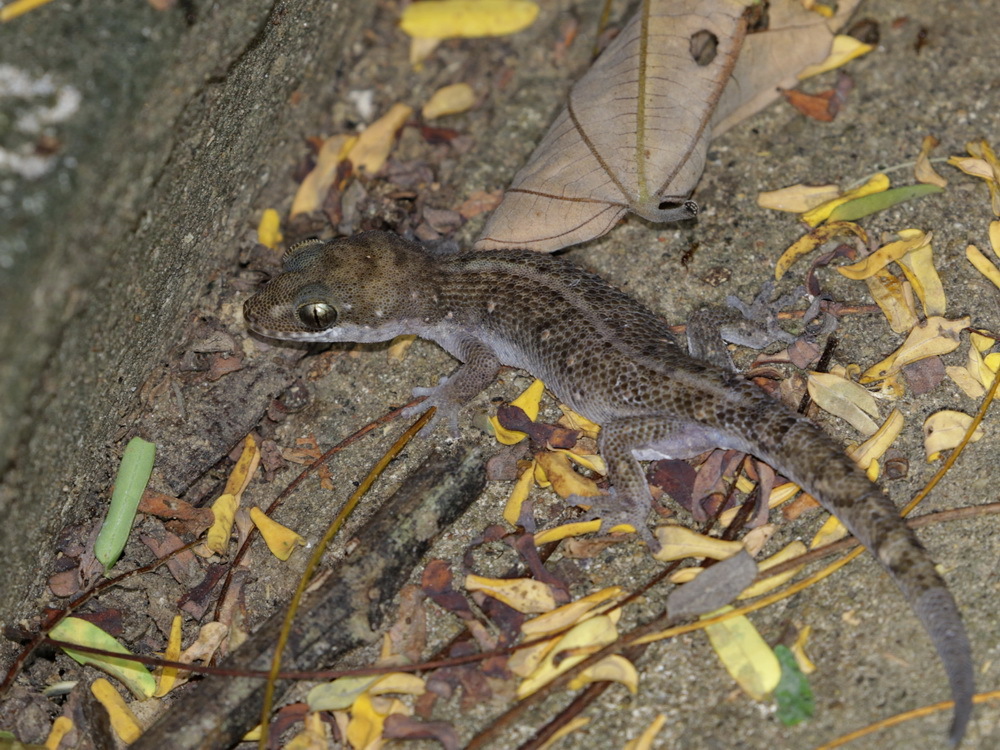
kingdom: Animalia
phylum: Chordata
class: Squamata
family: Gekkonidae
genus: Dixonius
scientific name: Dixonius siamensis
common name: Siamese leaf-toed gecko
